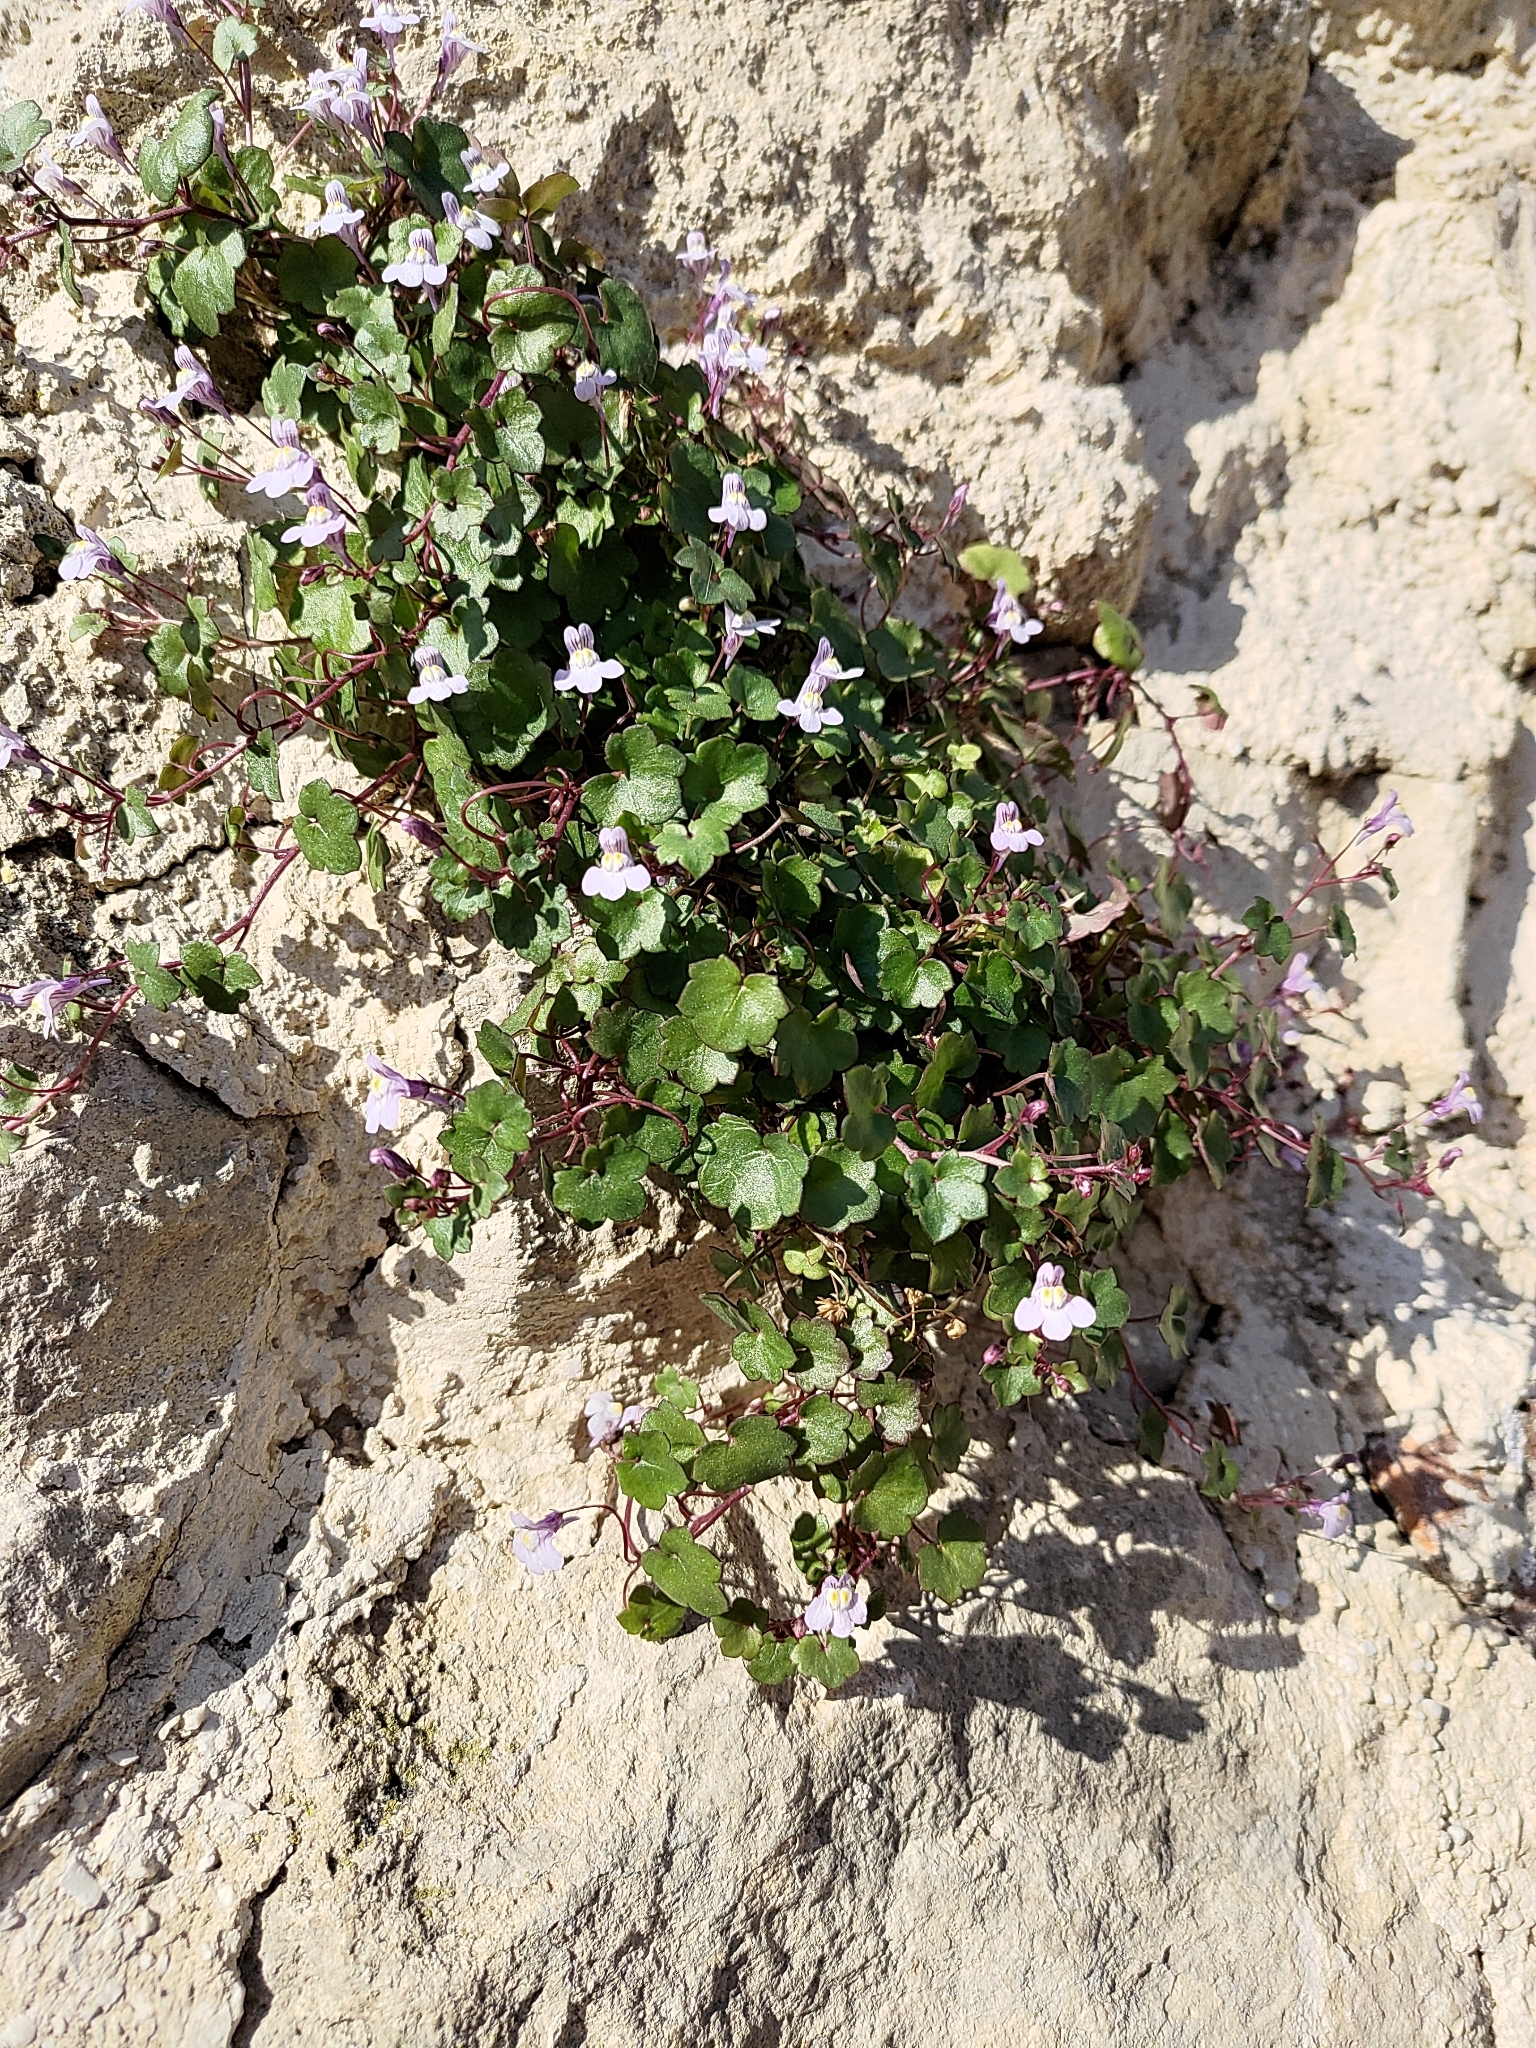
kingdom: Plantae
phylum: Tracheophyta
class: Magnoliopsida
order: Lamiales
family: Plantaginaceae
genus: Cymbalaria
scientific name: Cymbalaria muralis
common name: Ivy-leaved toadflax
